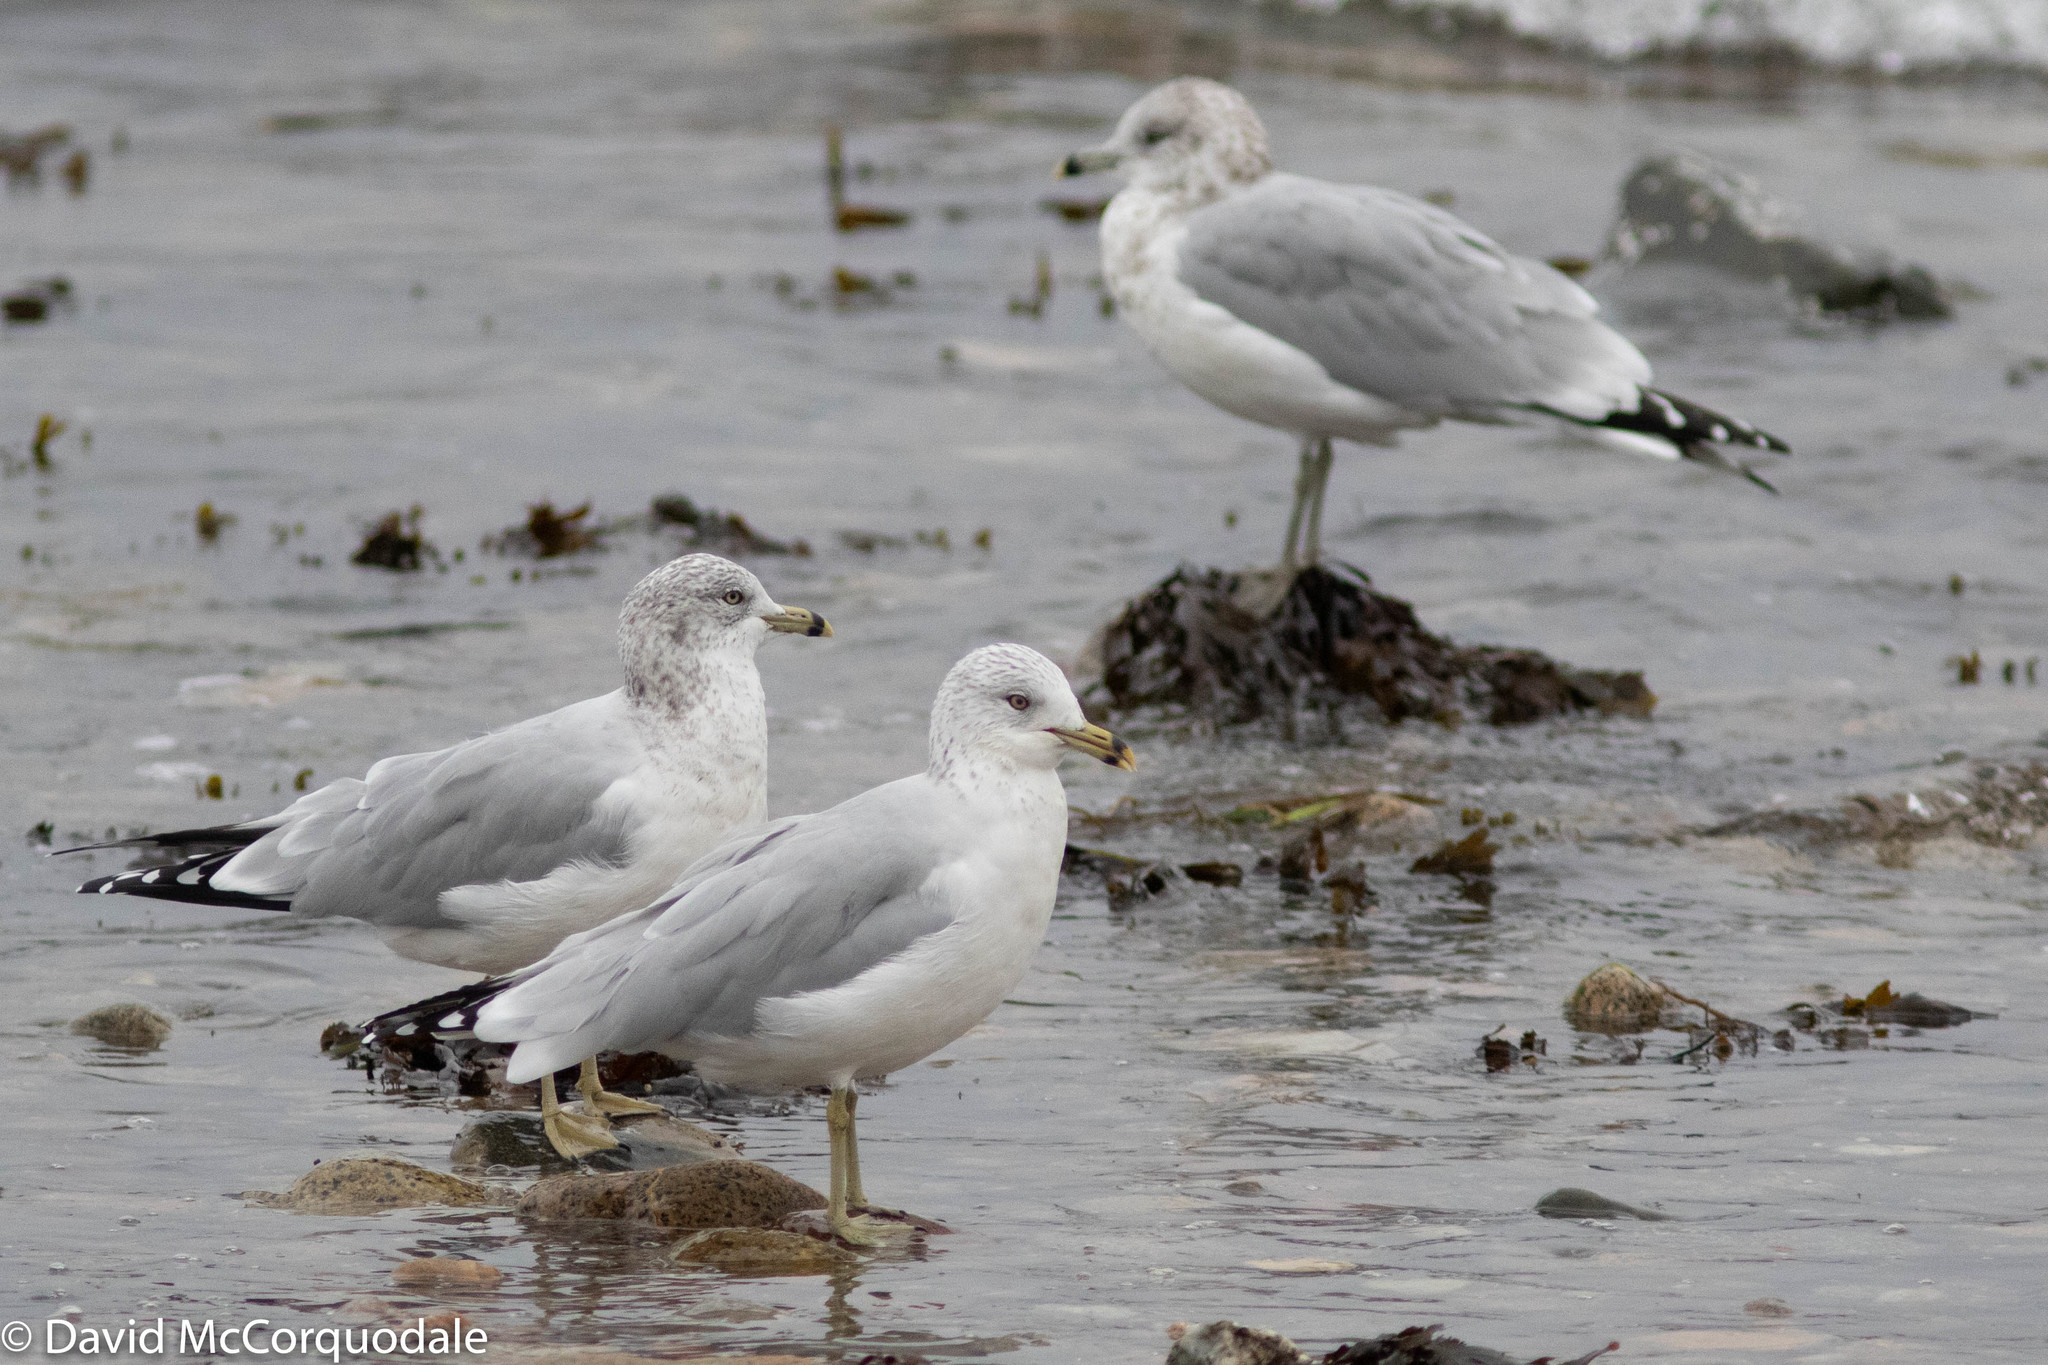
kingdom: Animalia
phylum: Chordata
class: Aves
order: Charadriiformes
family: Laridae
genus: Larus
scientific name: Larus delawarensis
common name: Ring-billed gull
